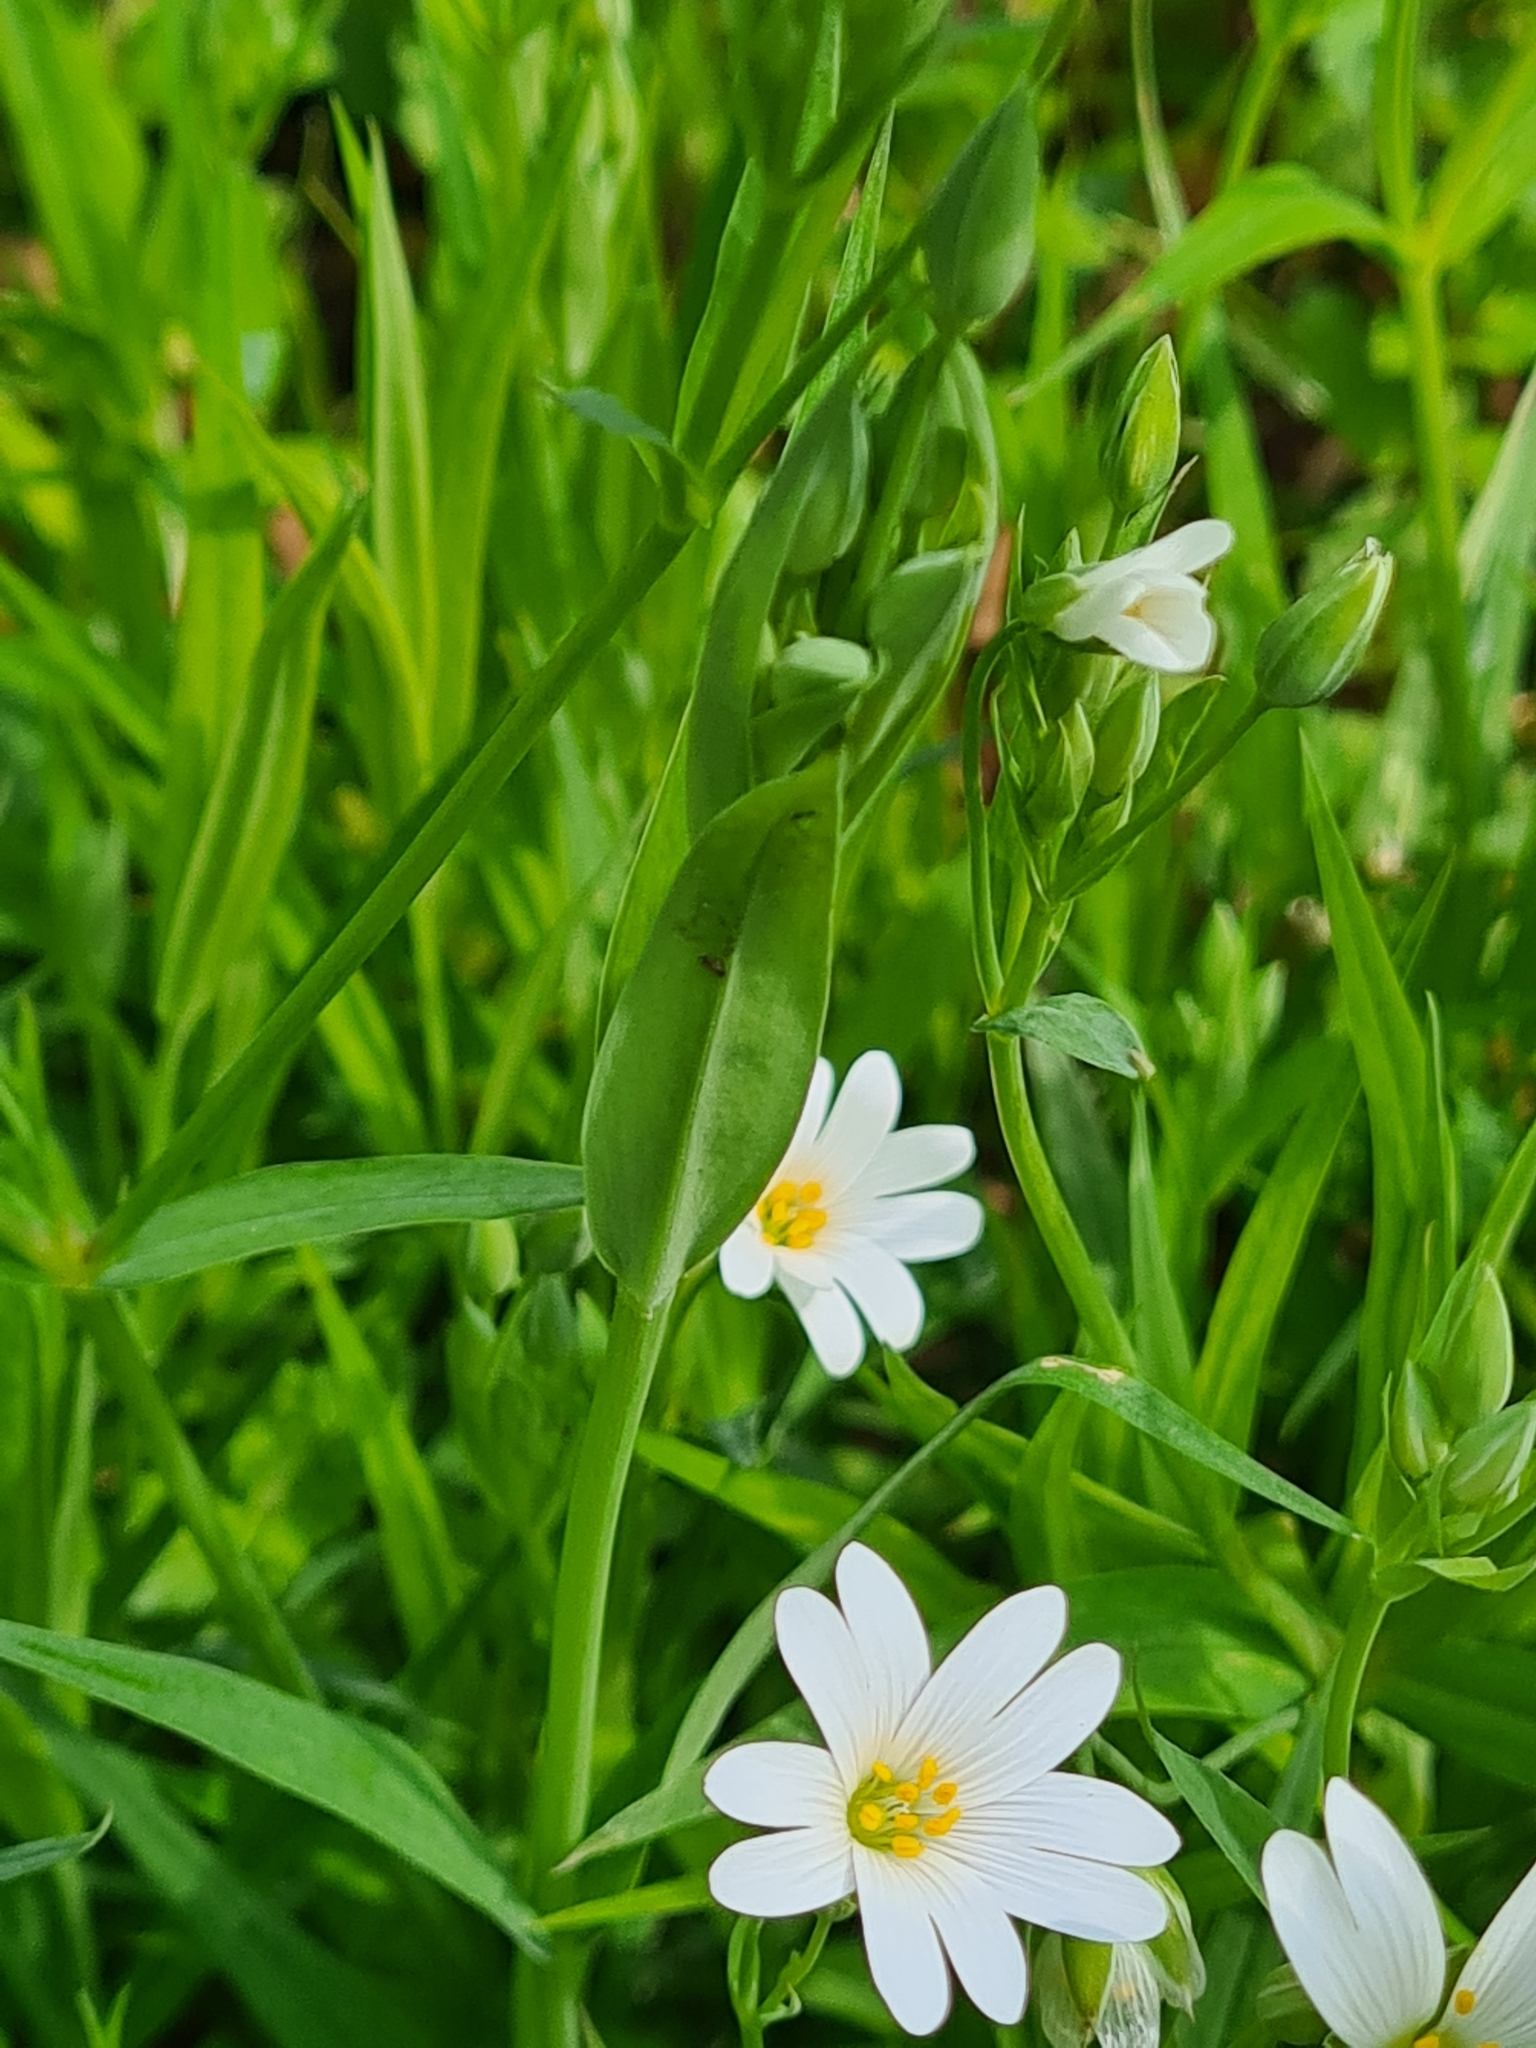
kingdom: Plantae
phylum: Tracheophyta
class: Magnoliopsida
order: Caryophyllales
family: Caryophyllaceae
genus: Rabelera
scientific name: Rabelera holostea
